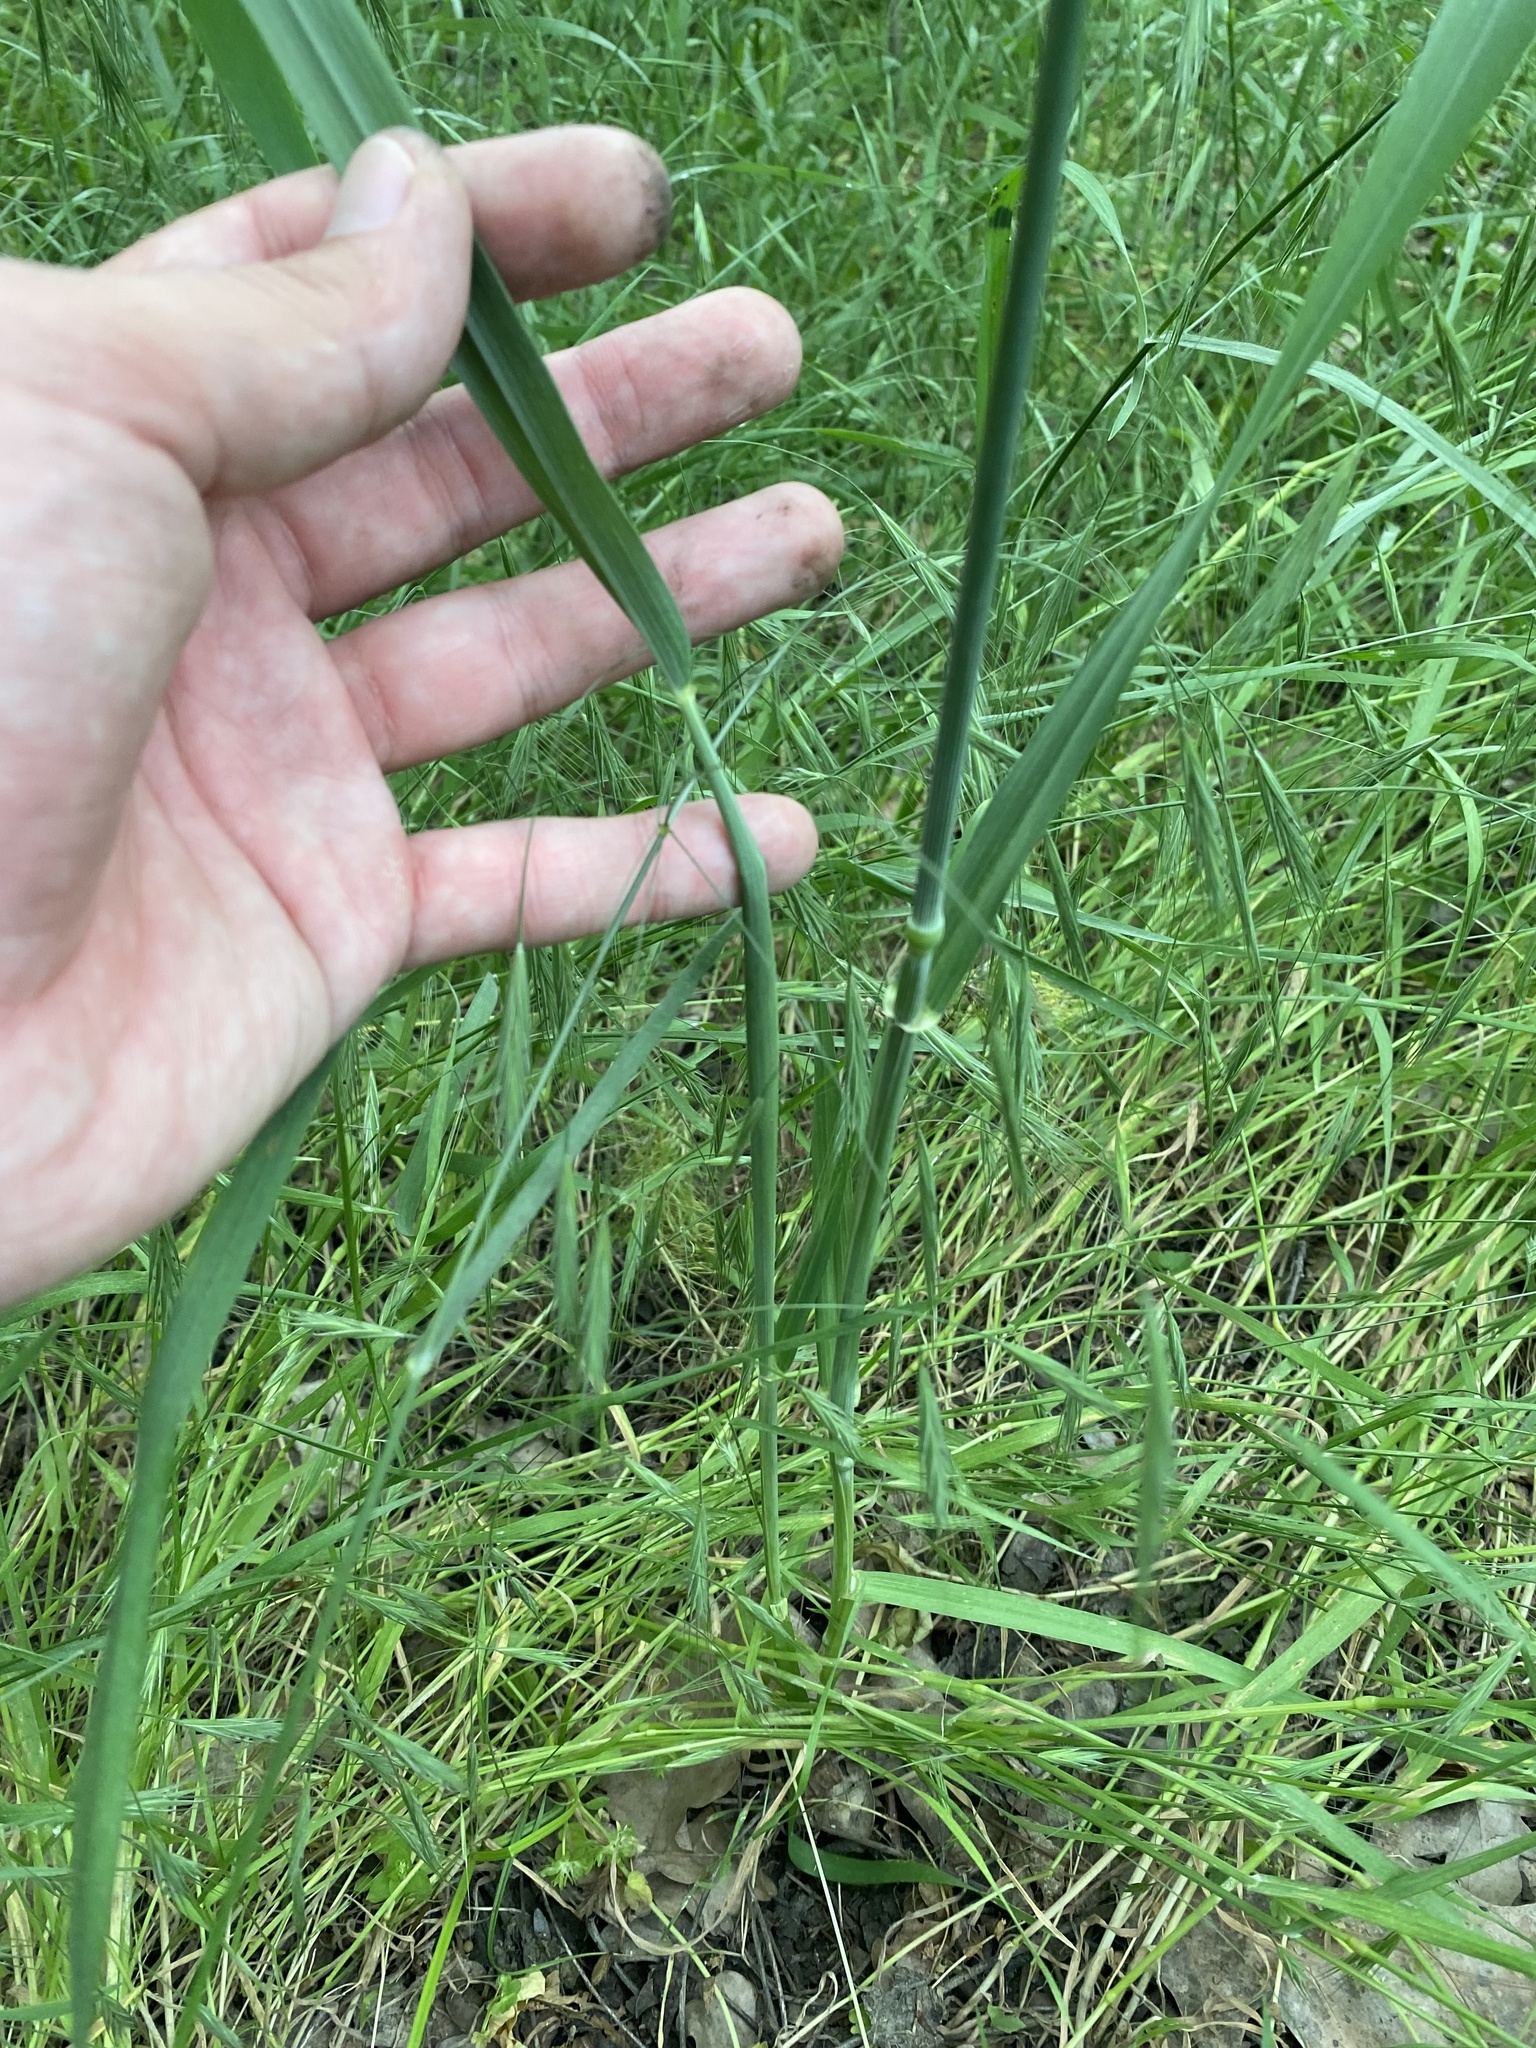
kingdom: Plantae
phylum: Tracheophyta
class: Liliopsida
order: Poales
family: Poaceae
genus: Triticum
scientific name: Triticum aestivum
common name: Common wheat
